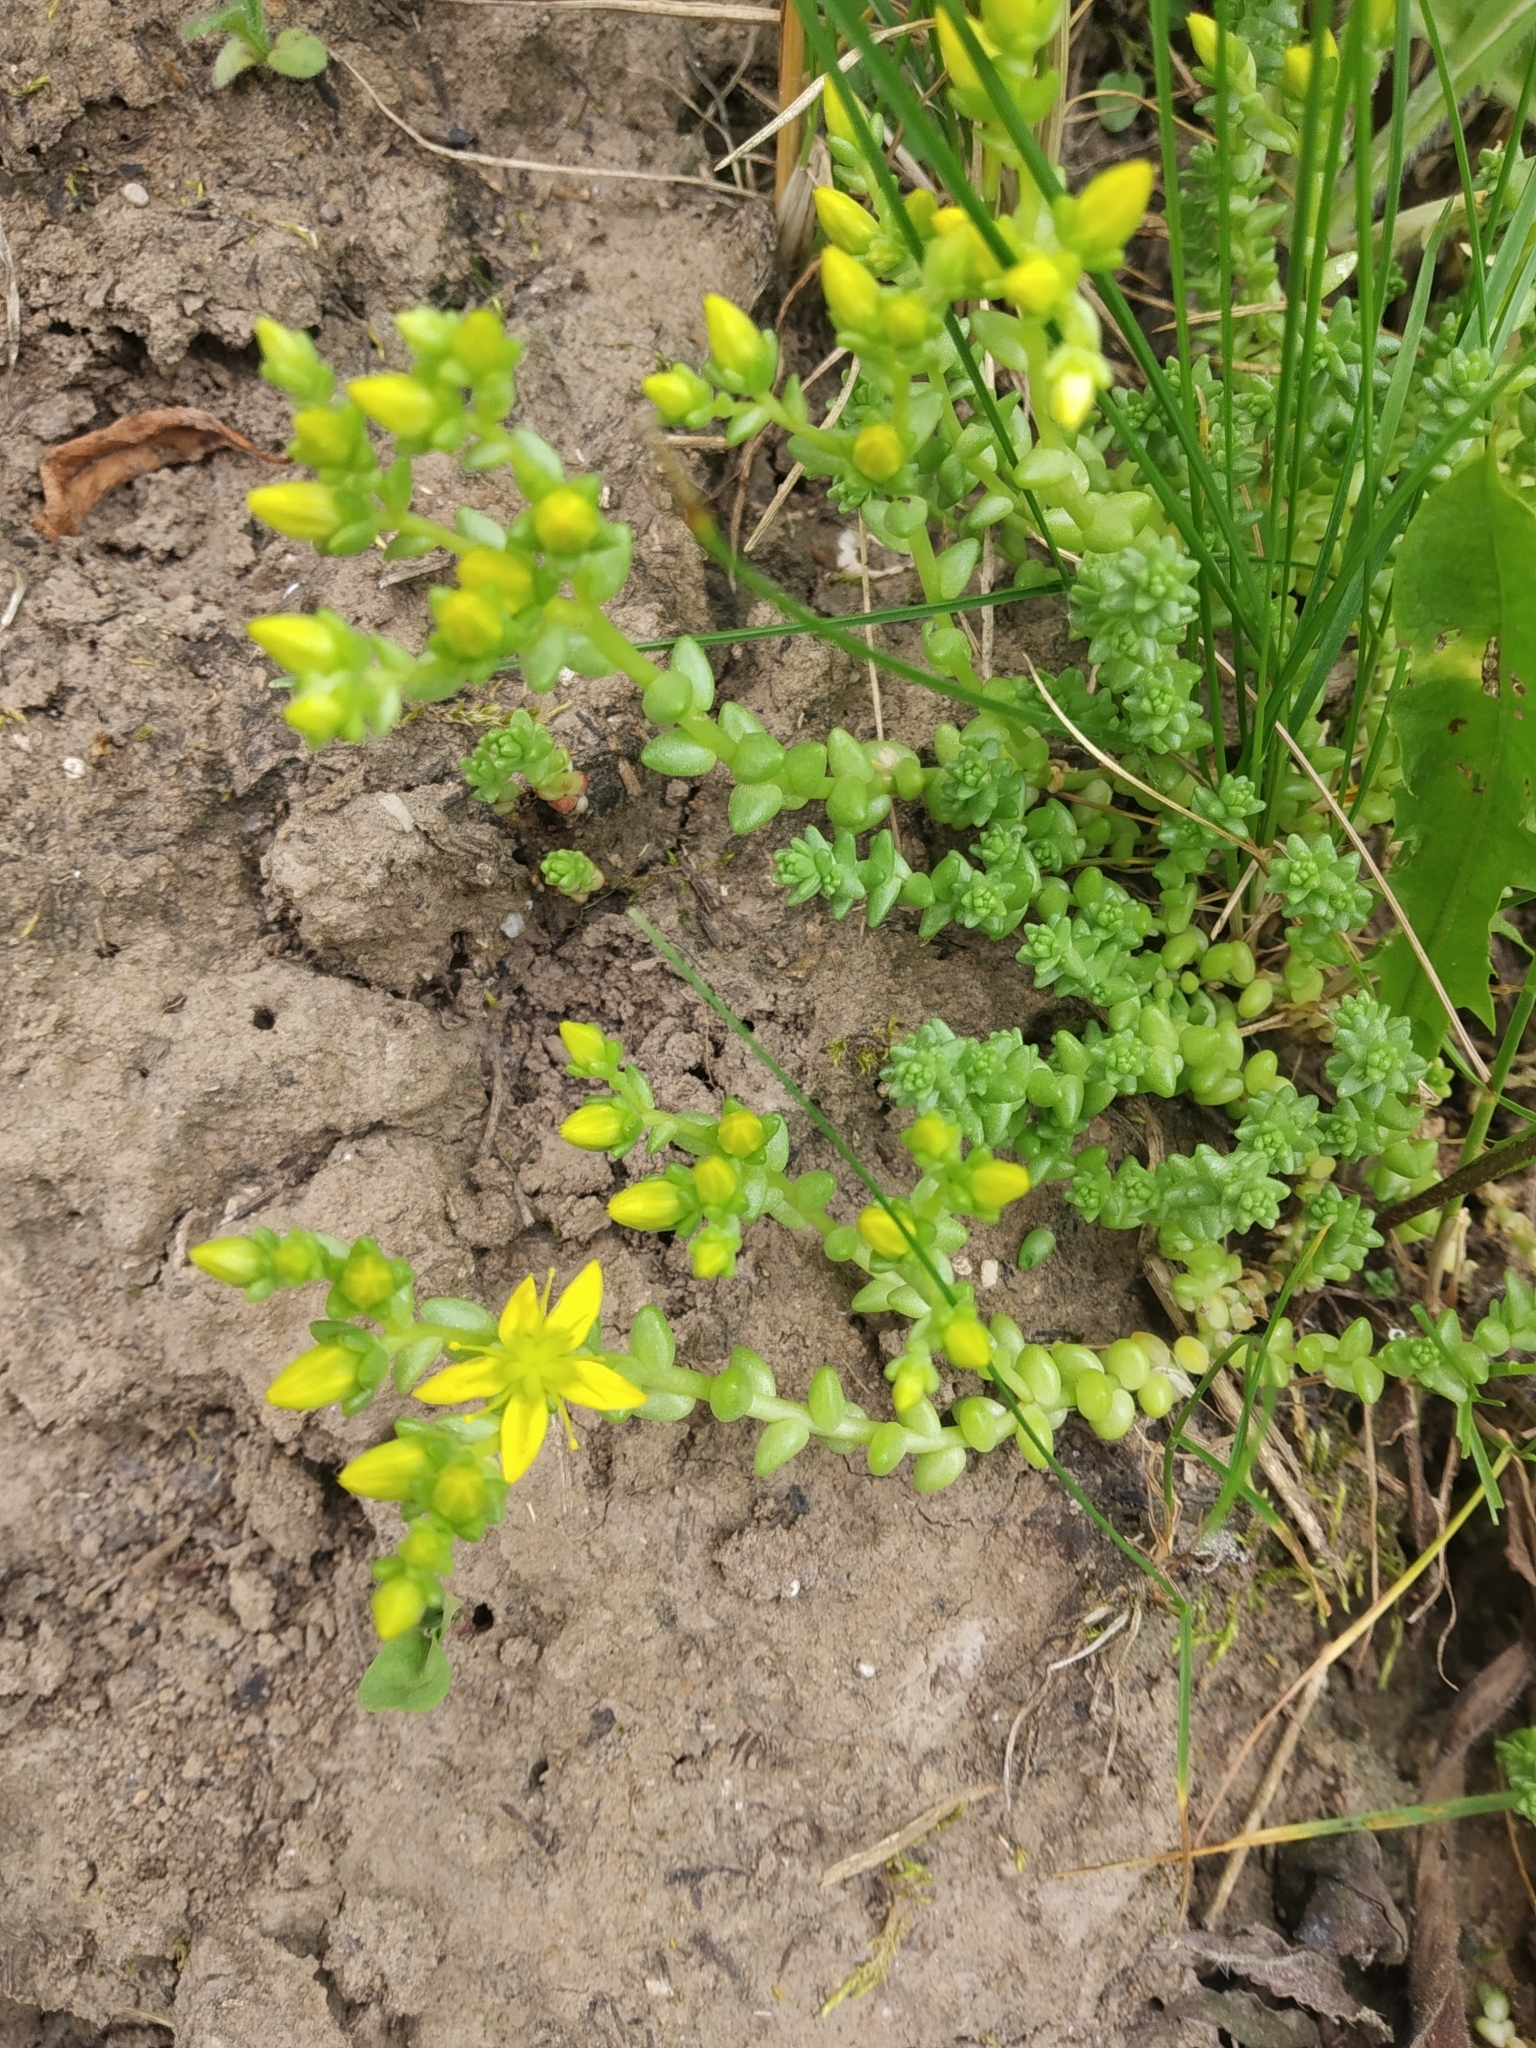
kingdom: Plantae
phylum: Tracheophyta
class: Magnoliopsida
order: Saxifragales
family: Crassulaceae
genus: Sedum
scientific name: Sedum acre
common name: Biting stonecrop
